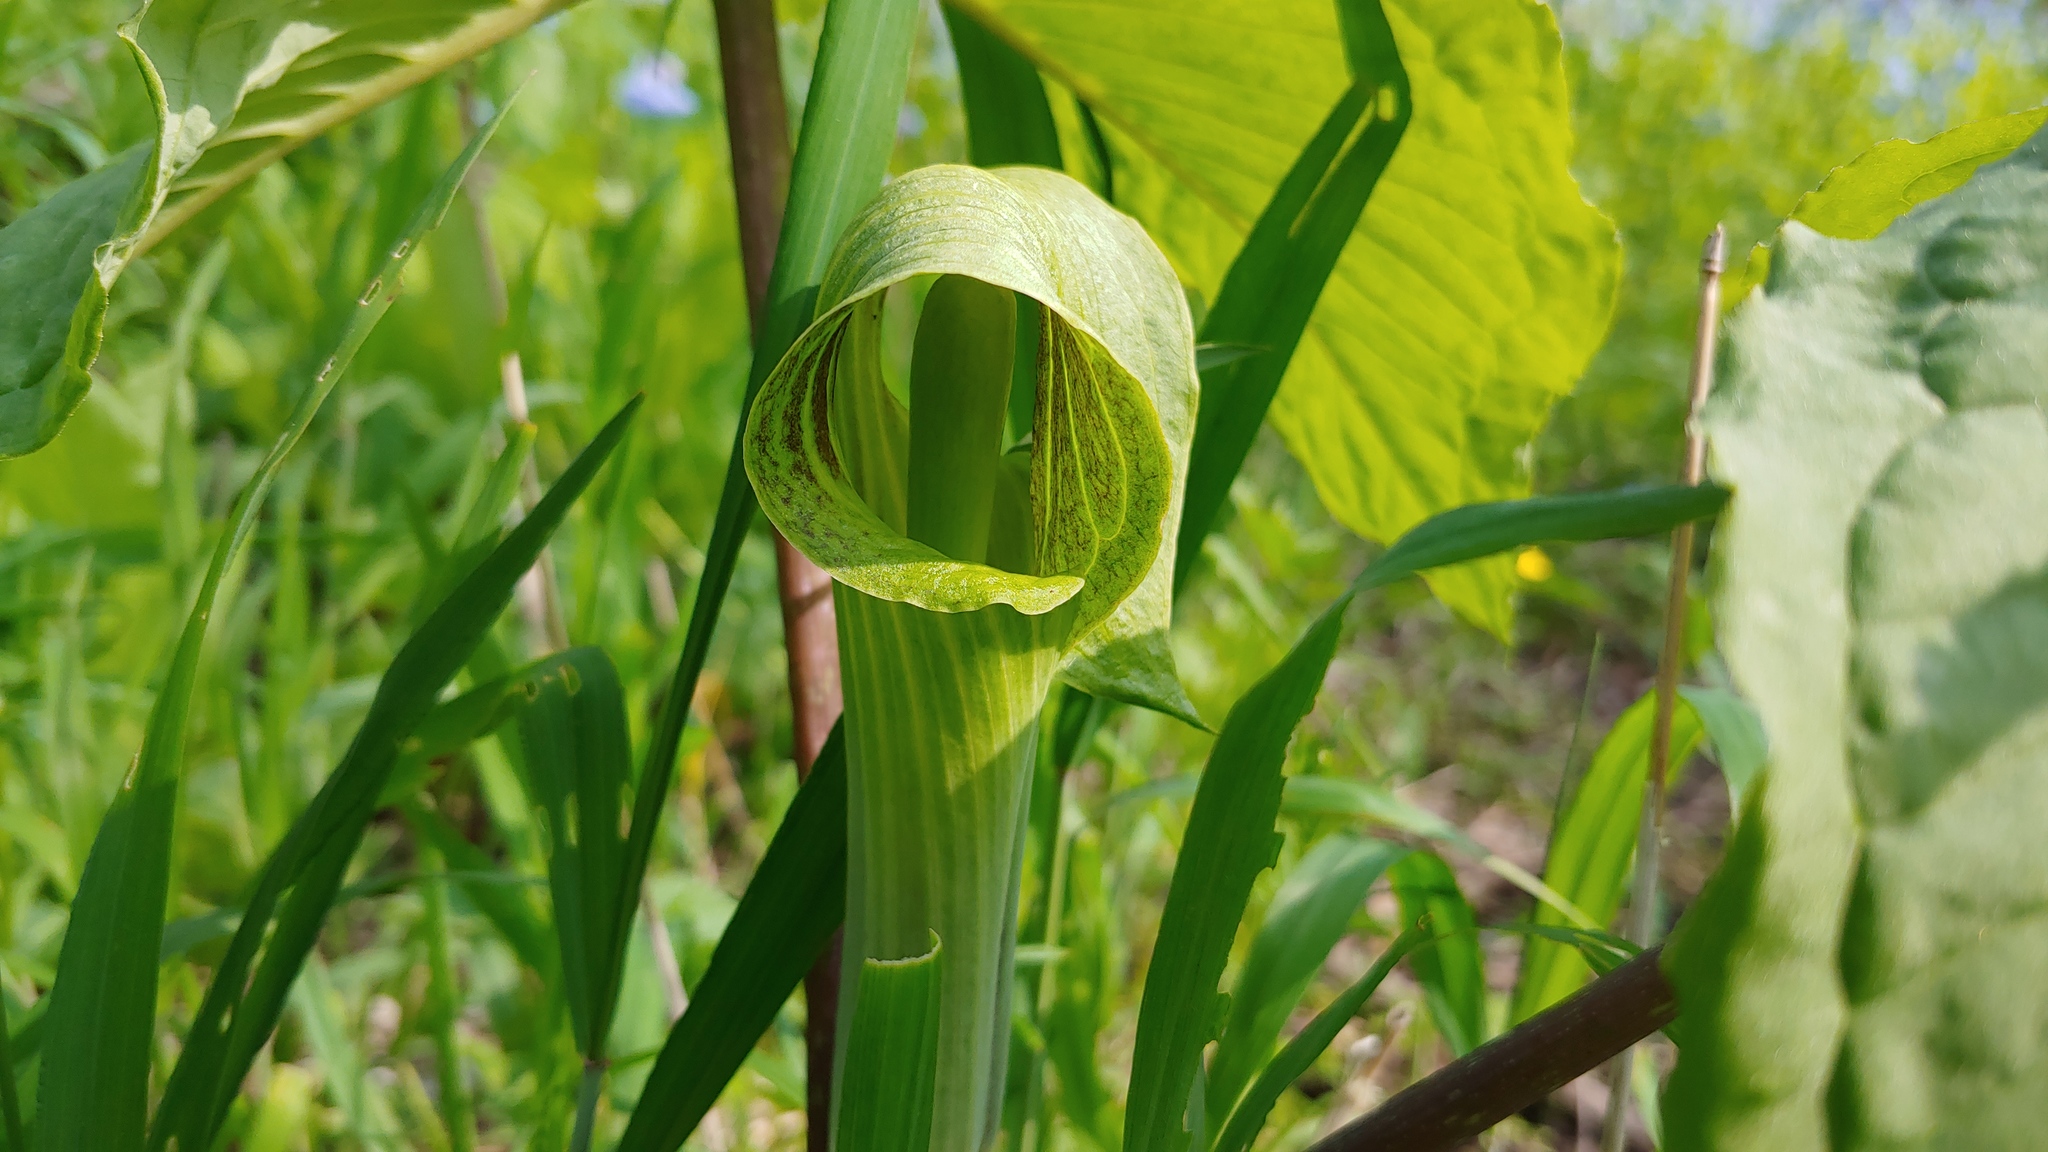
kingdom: Plantae
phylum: Tracheophyta
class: Liliopsida
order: Alismatales
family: Araceae
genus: Arisaema
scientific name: Arisaema triphyllum
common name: Jack-in-the-pulpit
